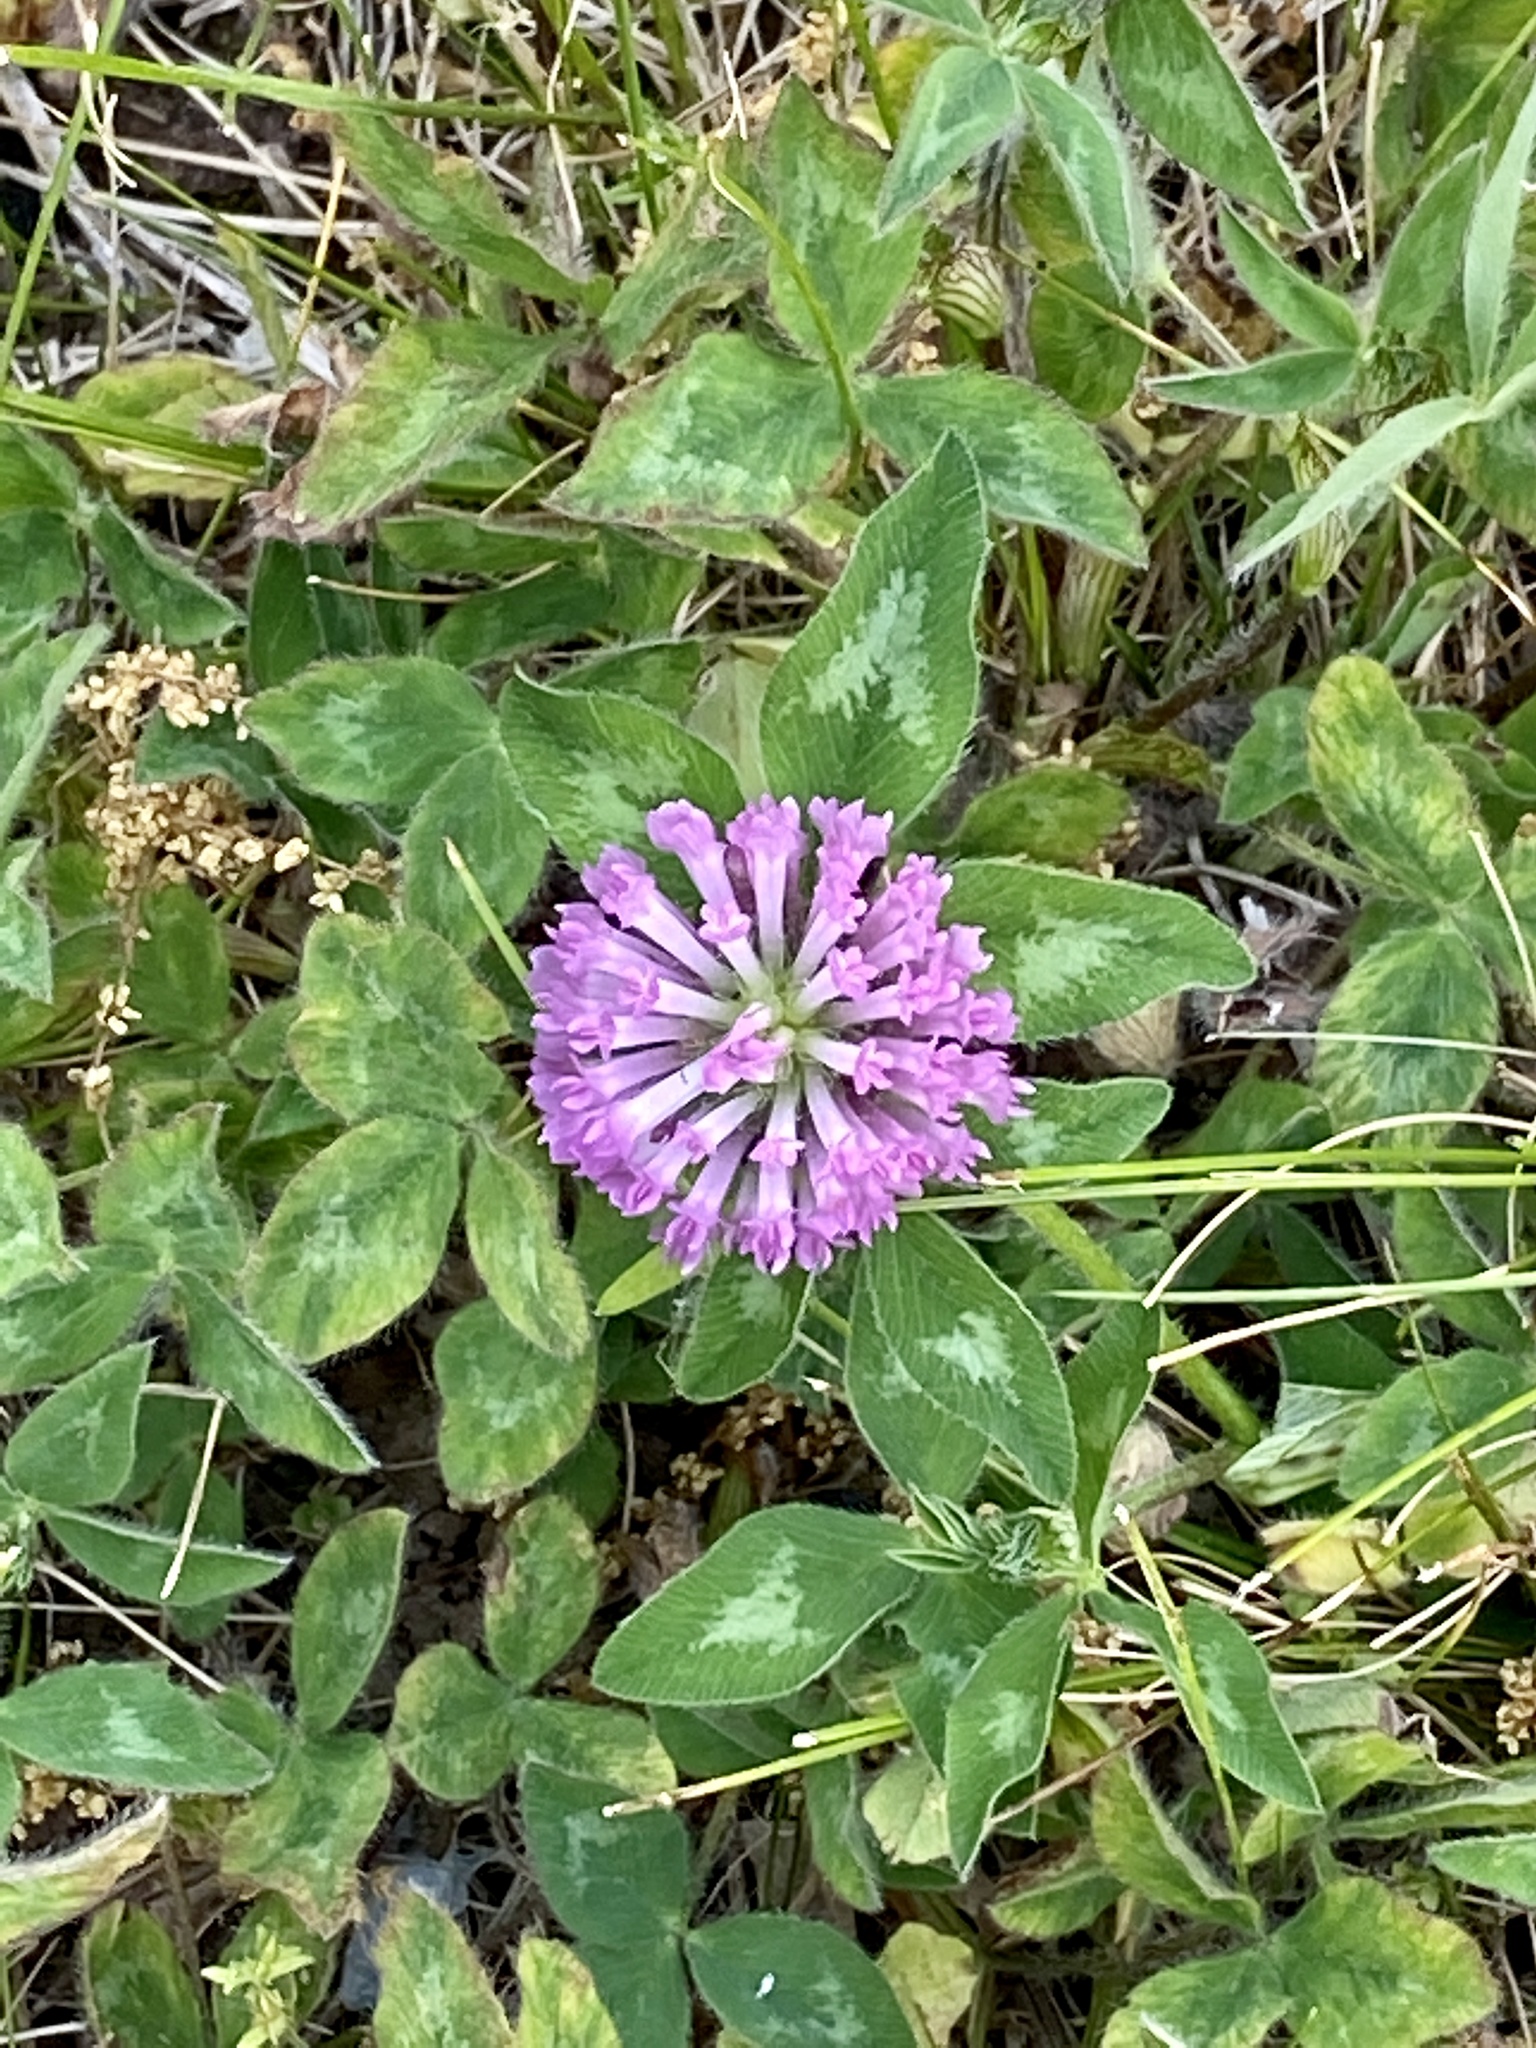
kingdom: Plantae
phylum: Tracheophyta
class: Magnoliopsida
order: Fabales
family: Fabaceae
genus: Trifolium
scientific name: Trifolium pratense
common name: Red clover
